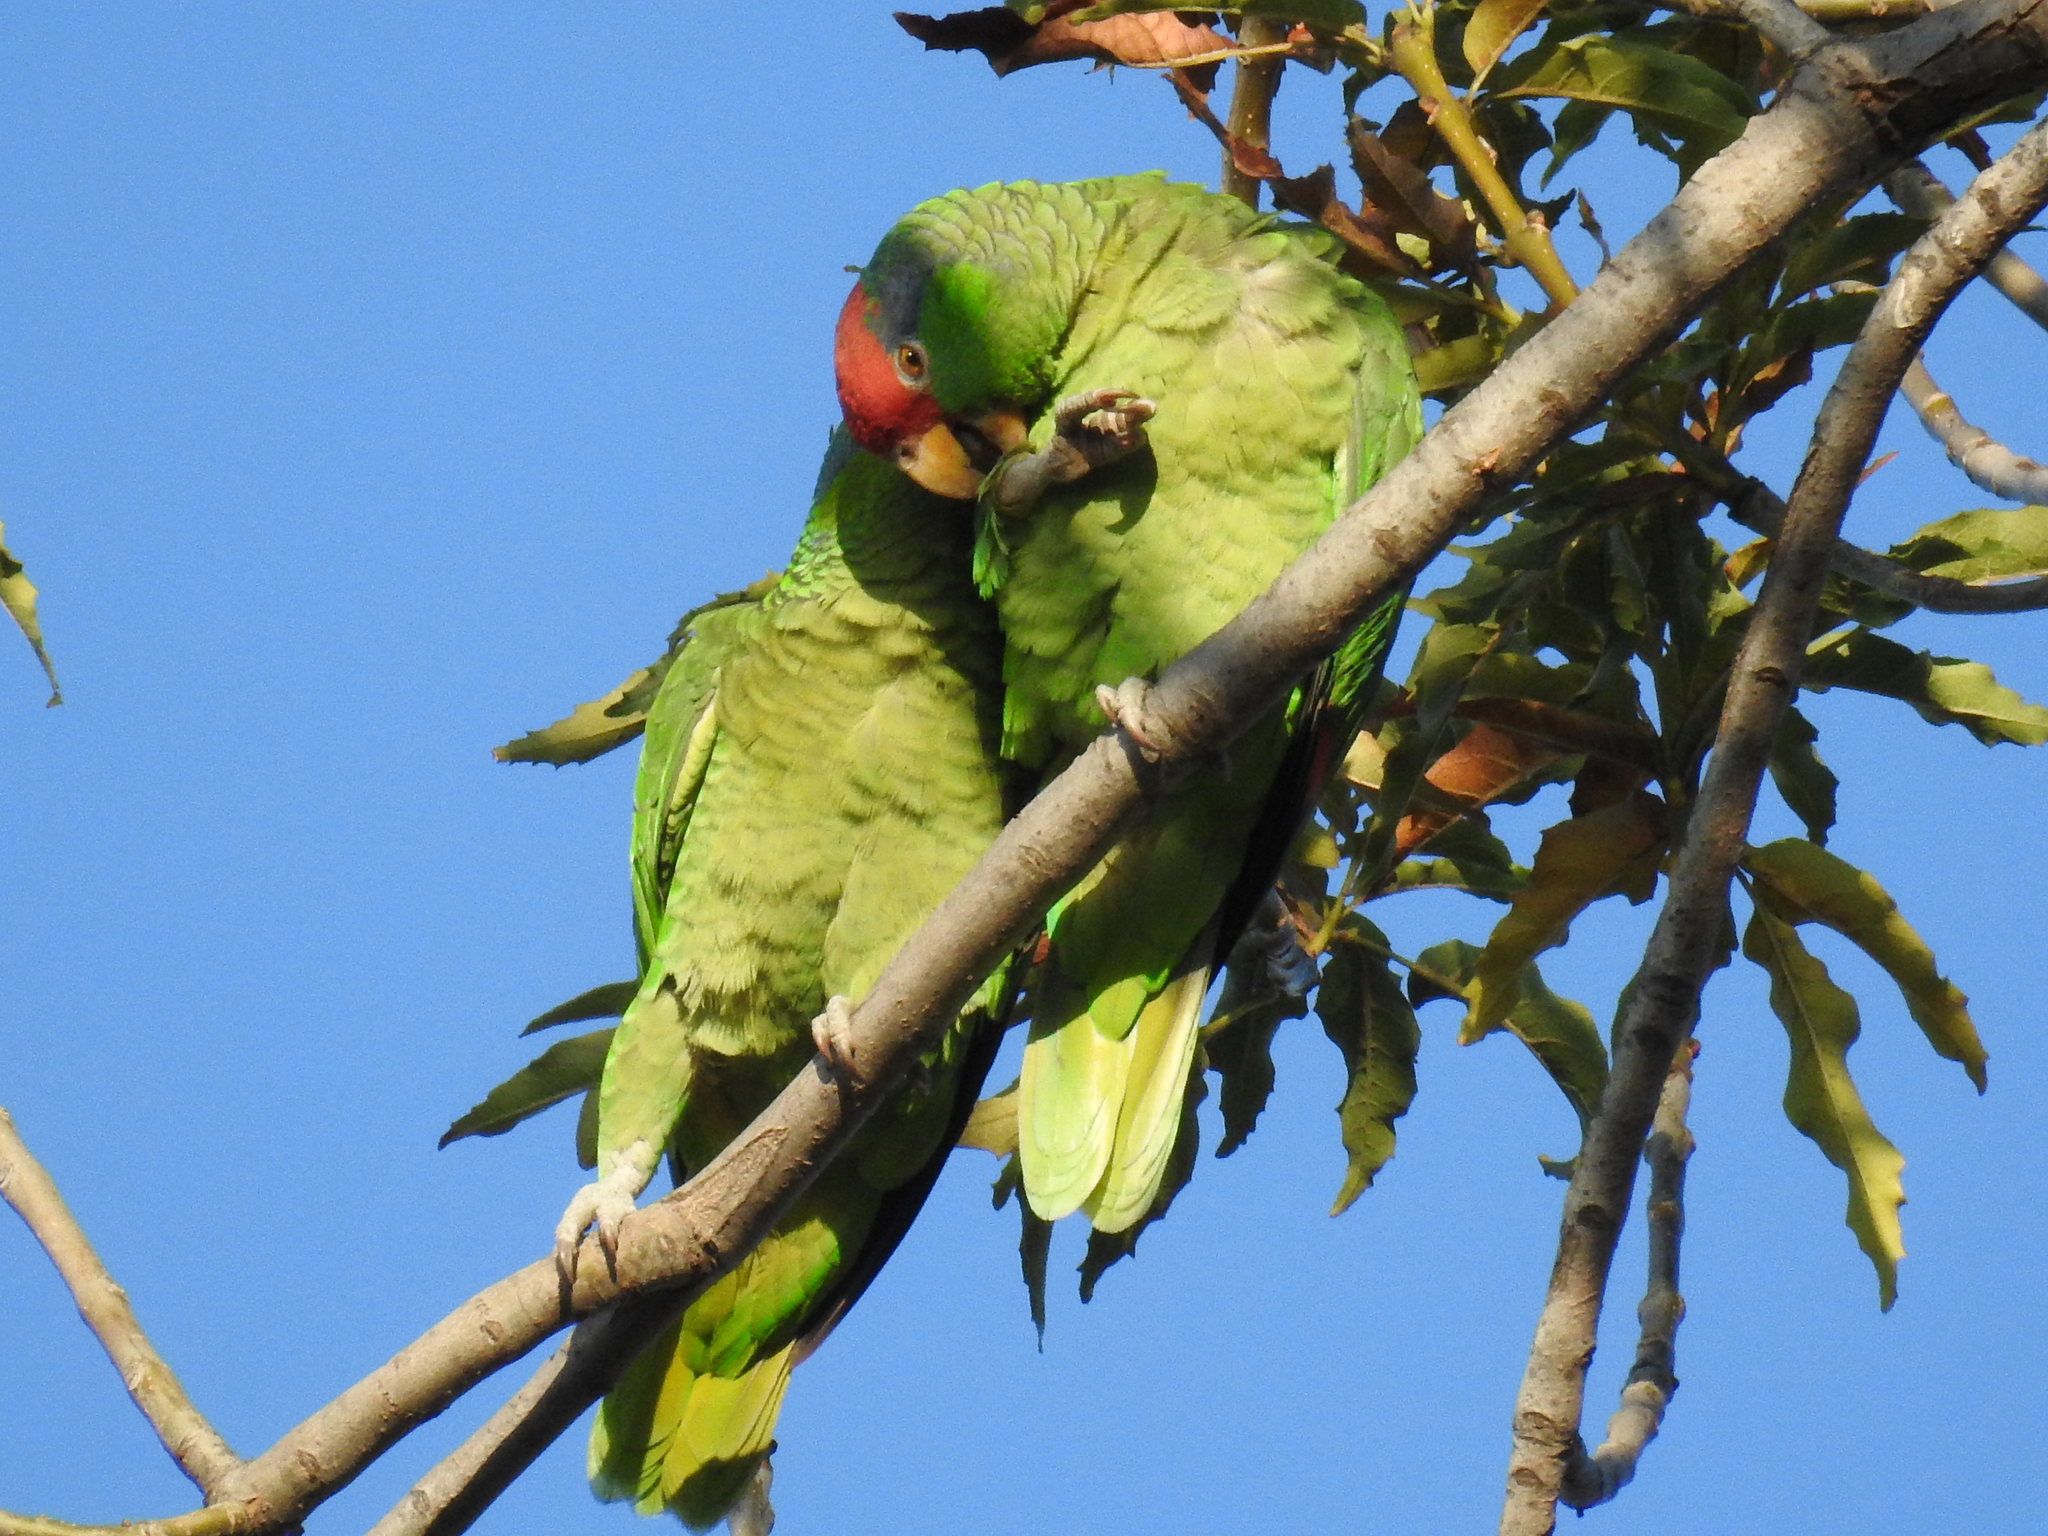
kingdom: Animalia
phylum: Chordata
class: Aves
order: Psittaciformes
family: Psittacidae
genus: Amazona
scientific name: Amazona viridigenalis
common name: Red-crowned amazon
